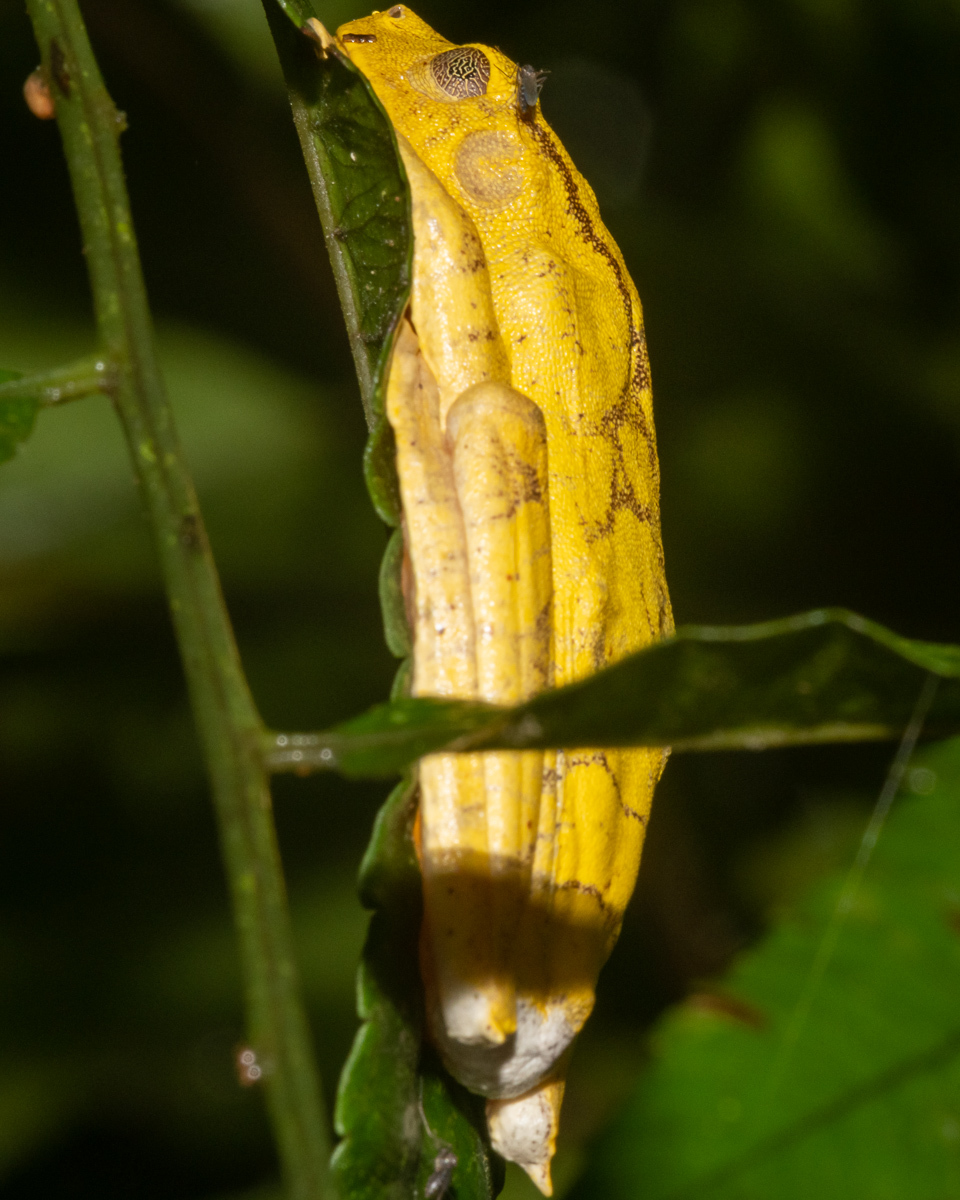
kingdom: Animalia
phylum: Chordata
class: Amphibia
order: Anura
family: Hylidae
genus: Boana
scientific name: Boana appendiculata
